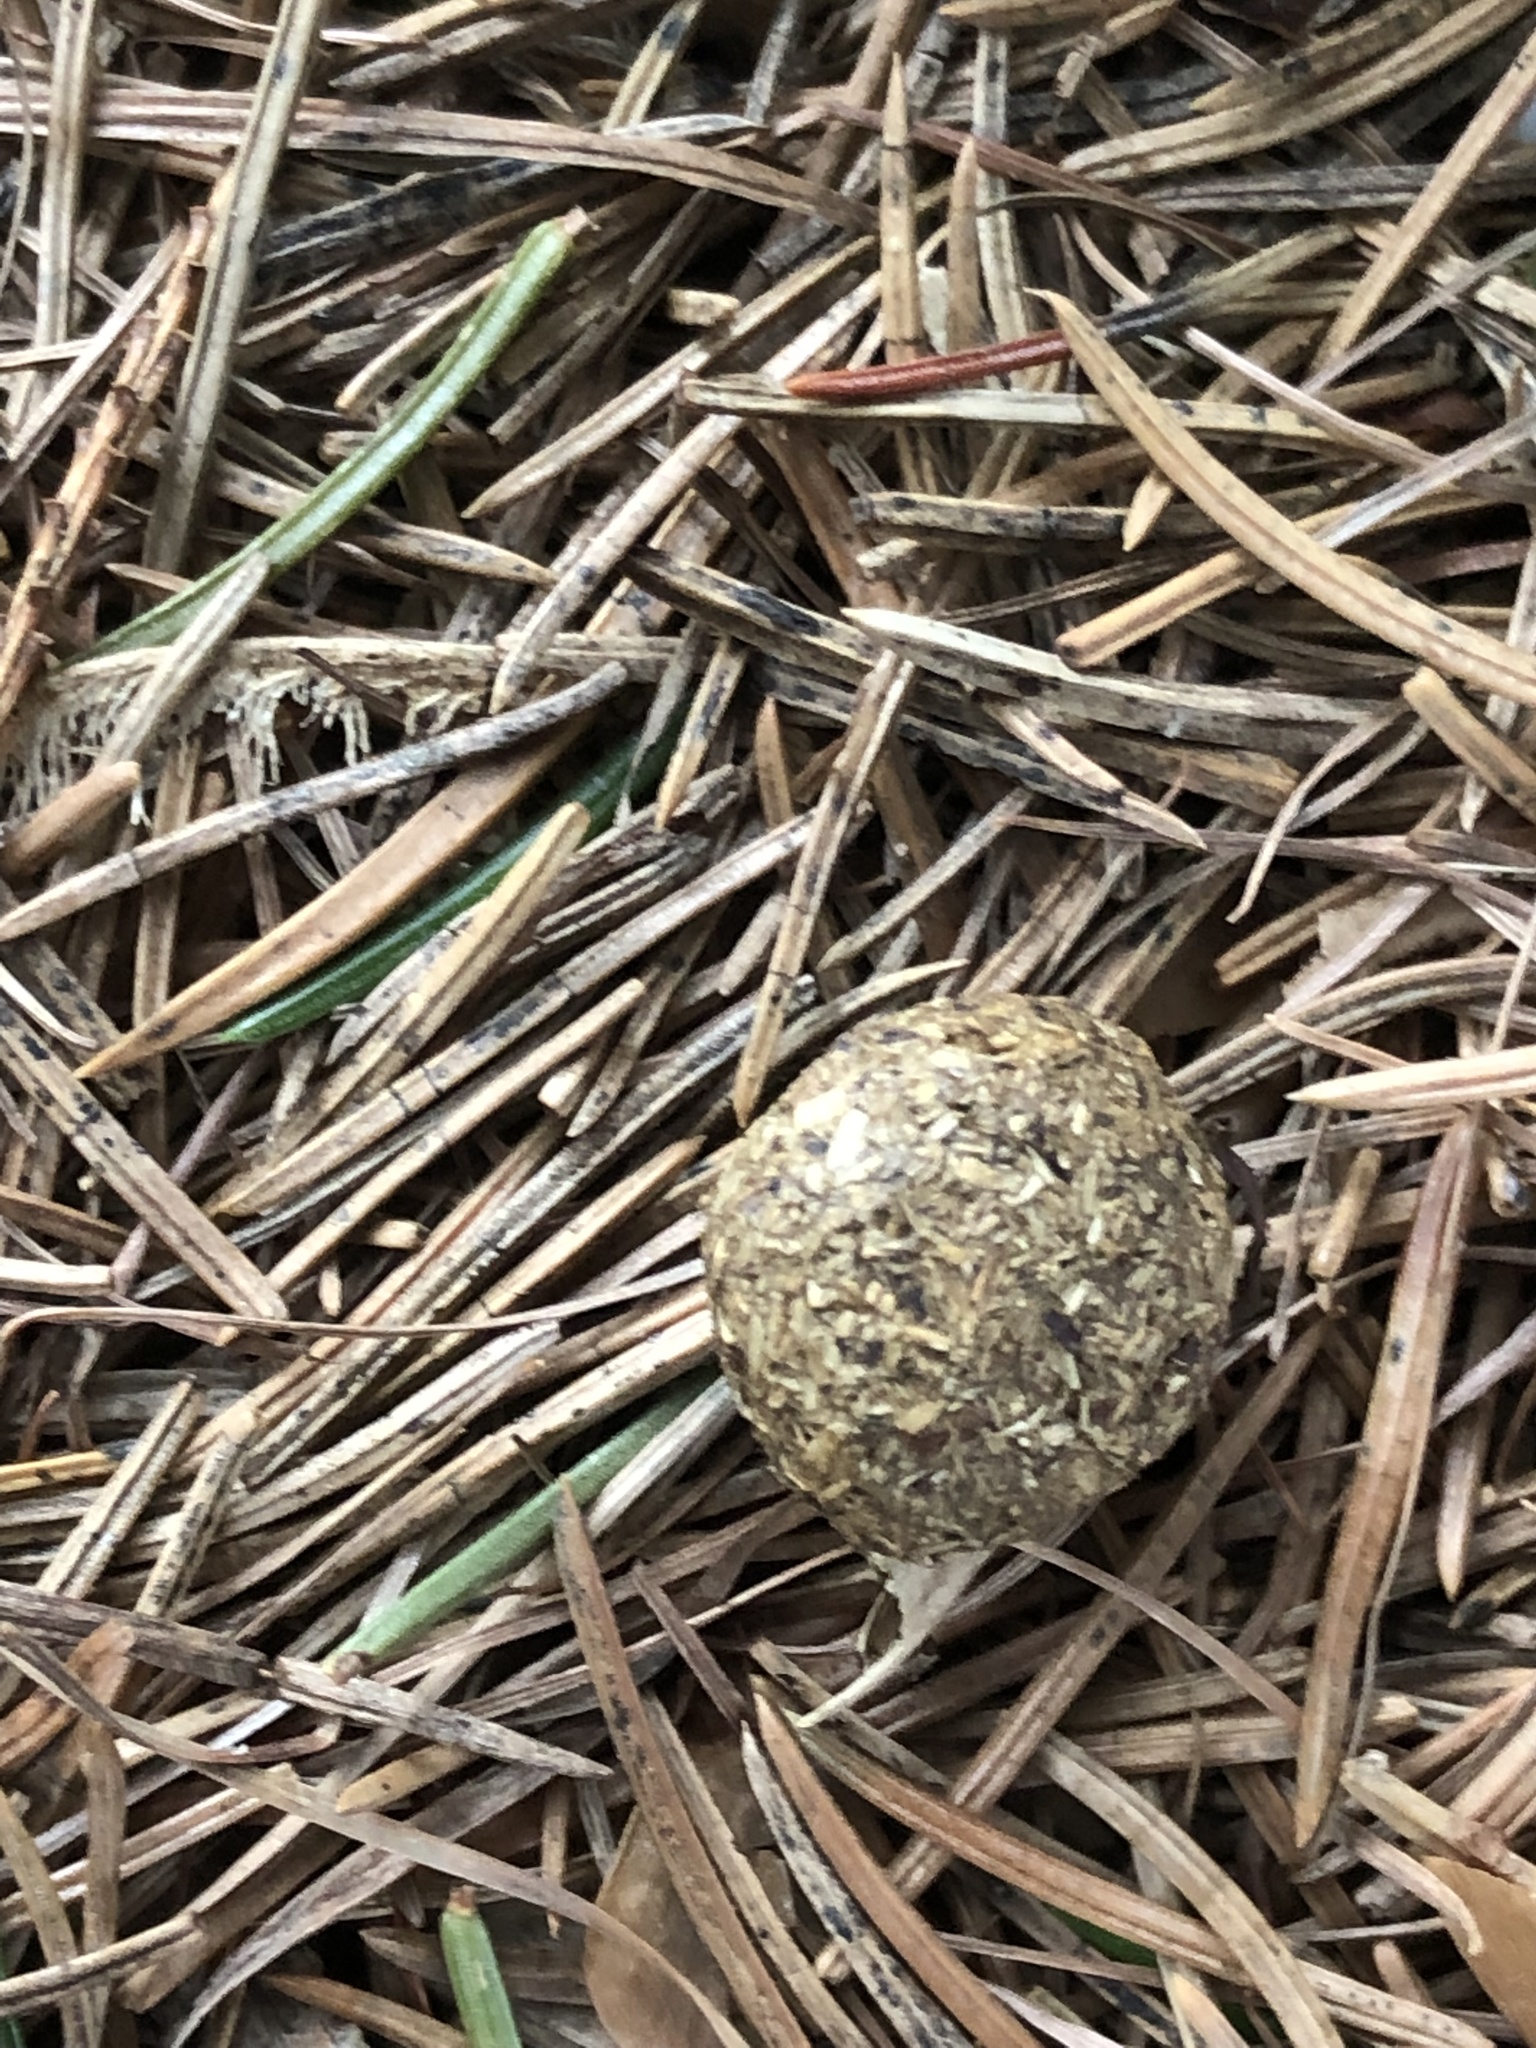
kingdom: Animalia
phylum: Chordata
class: Mammalia
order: Lagomorpha
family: Leporidae
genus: Sylvilagus
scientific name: Sylvilagus floridanus
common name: Eastern cottontail
